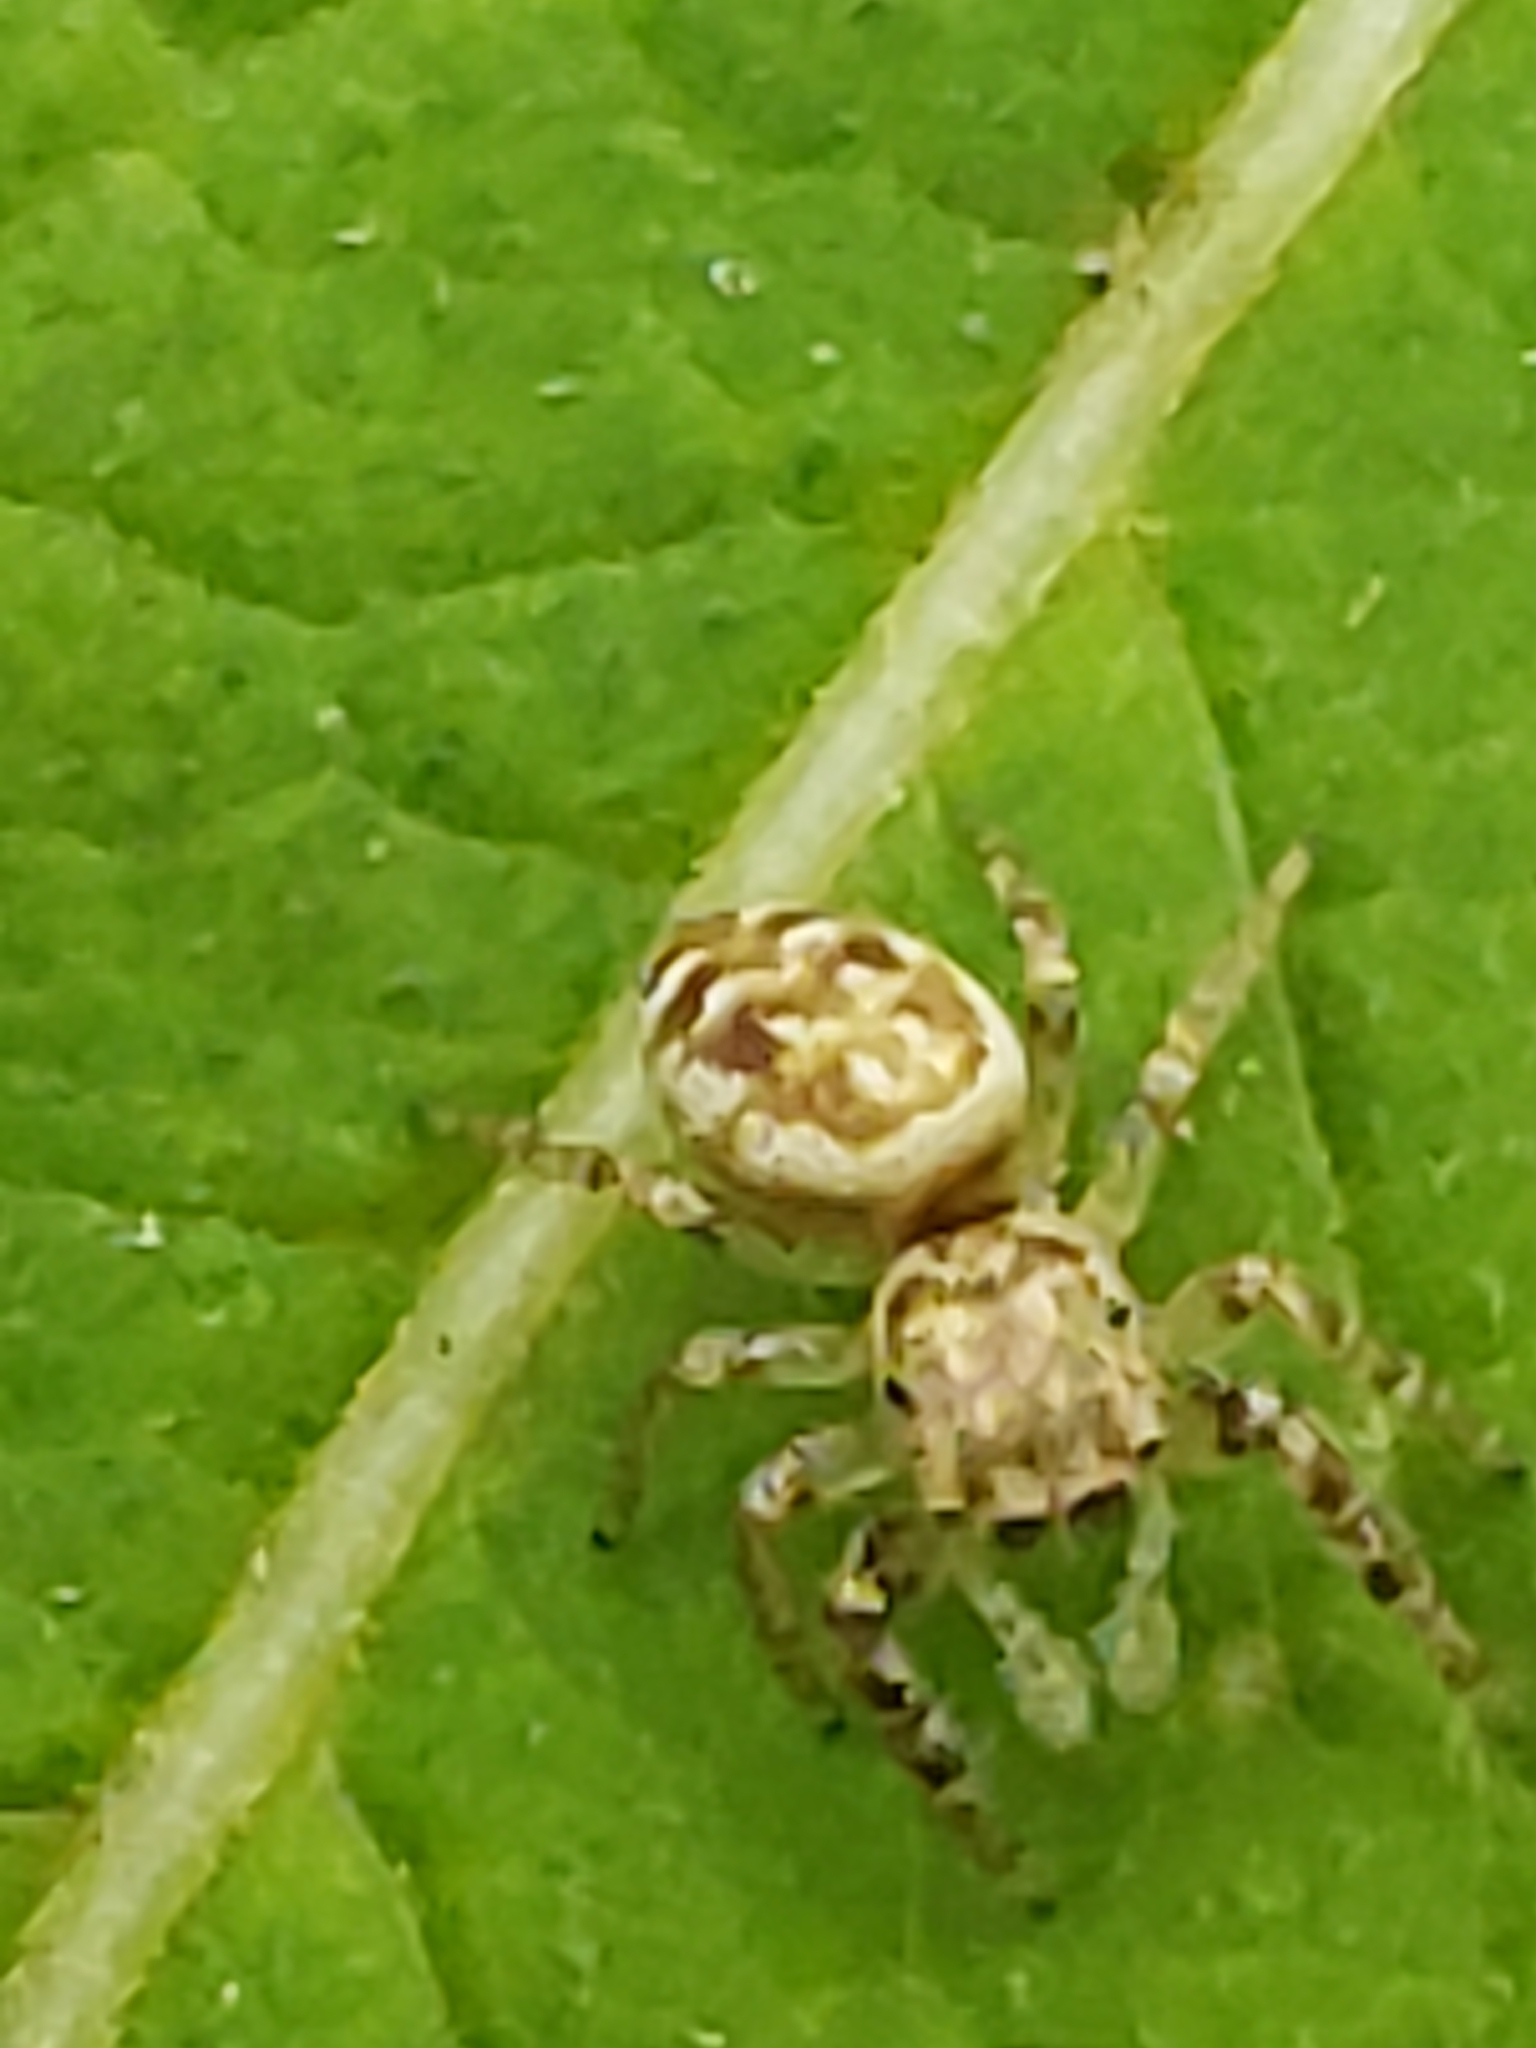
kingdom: Animalia
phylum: Arthropoda
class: Arachnida
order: Araneae
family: Salticidae
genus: Pelegrina
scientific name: Pelegrina galathea
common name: Jumping spiders
